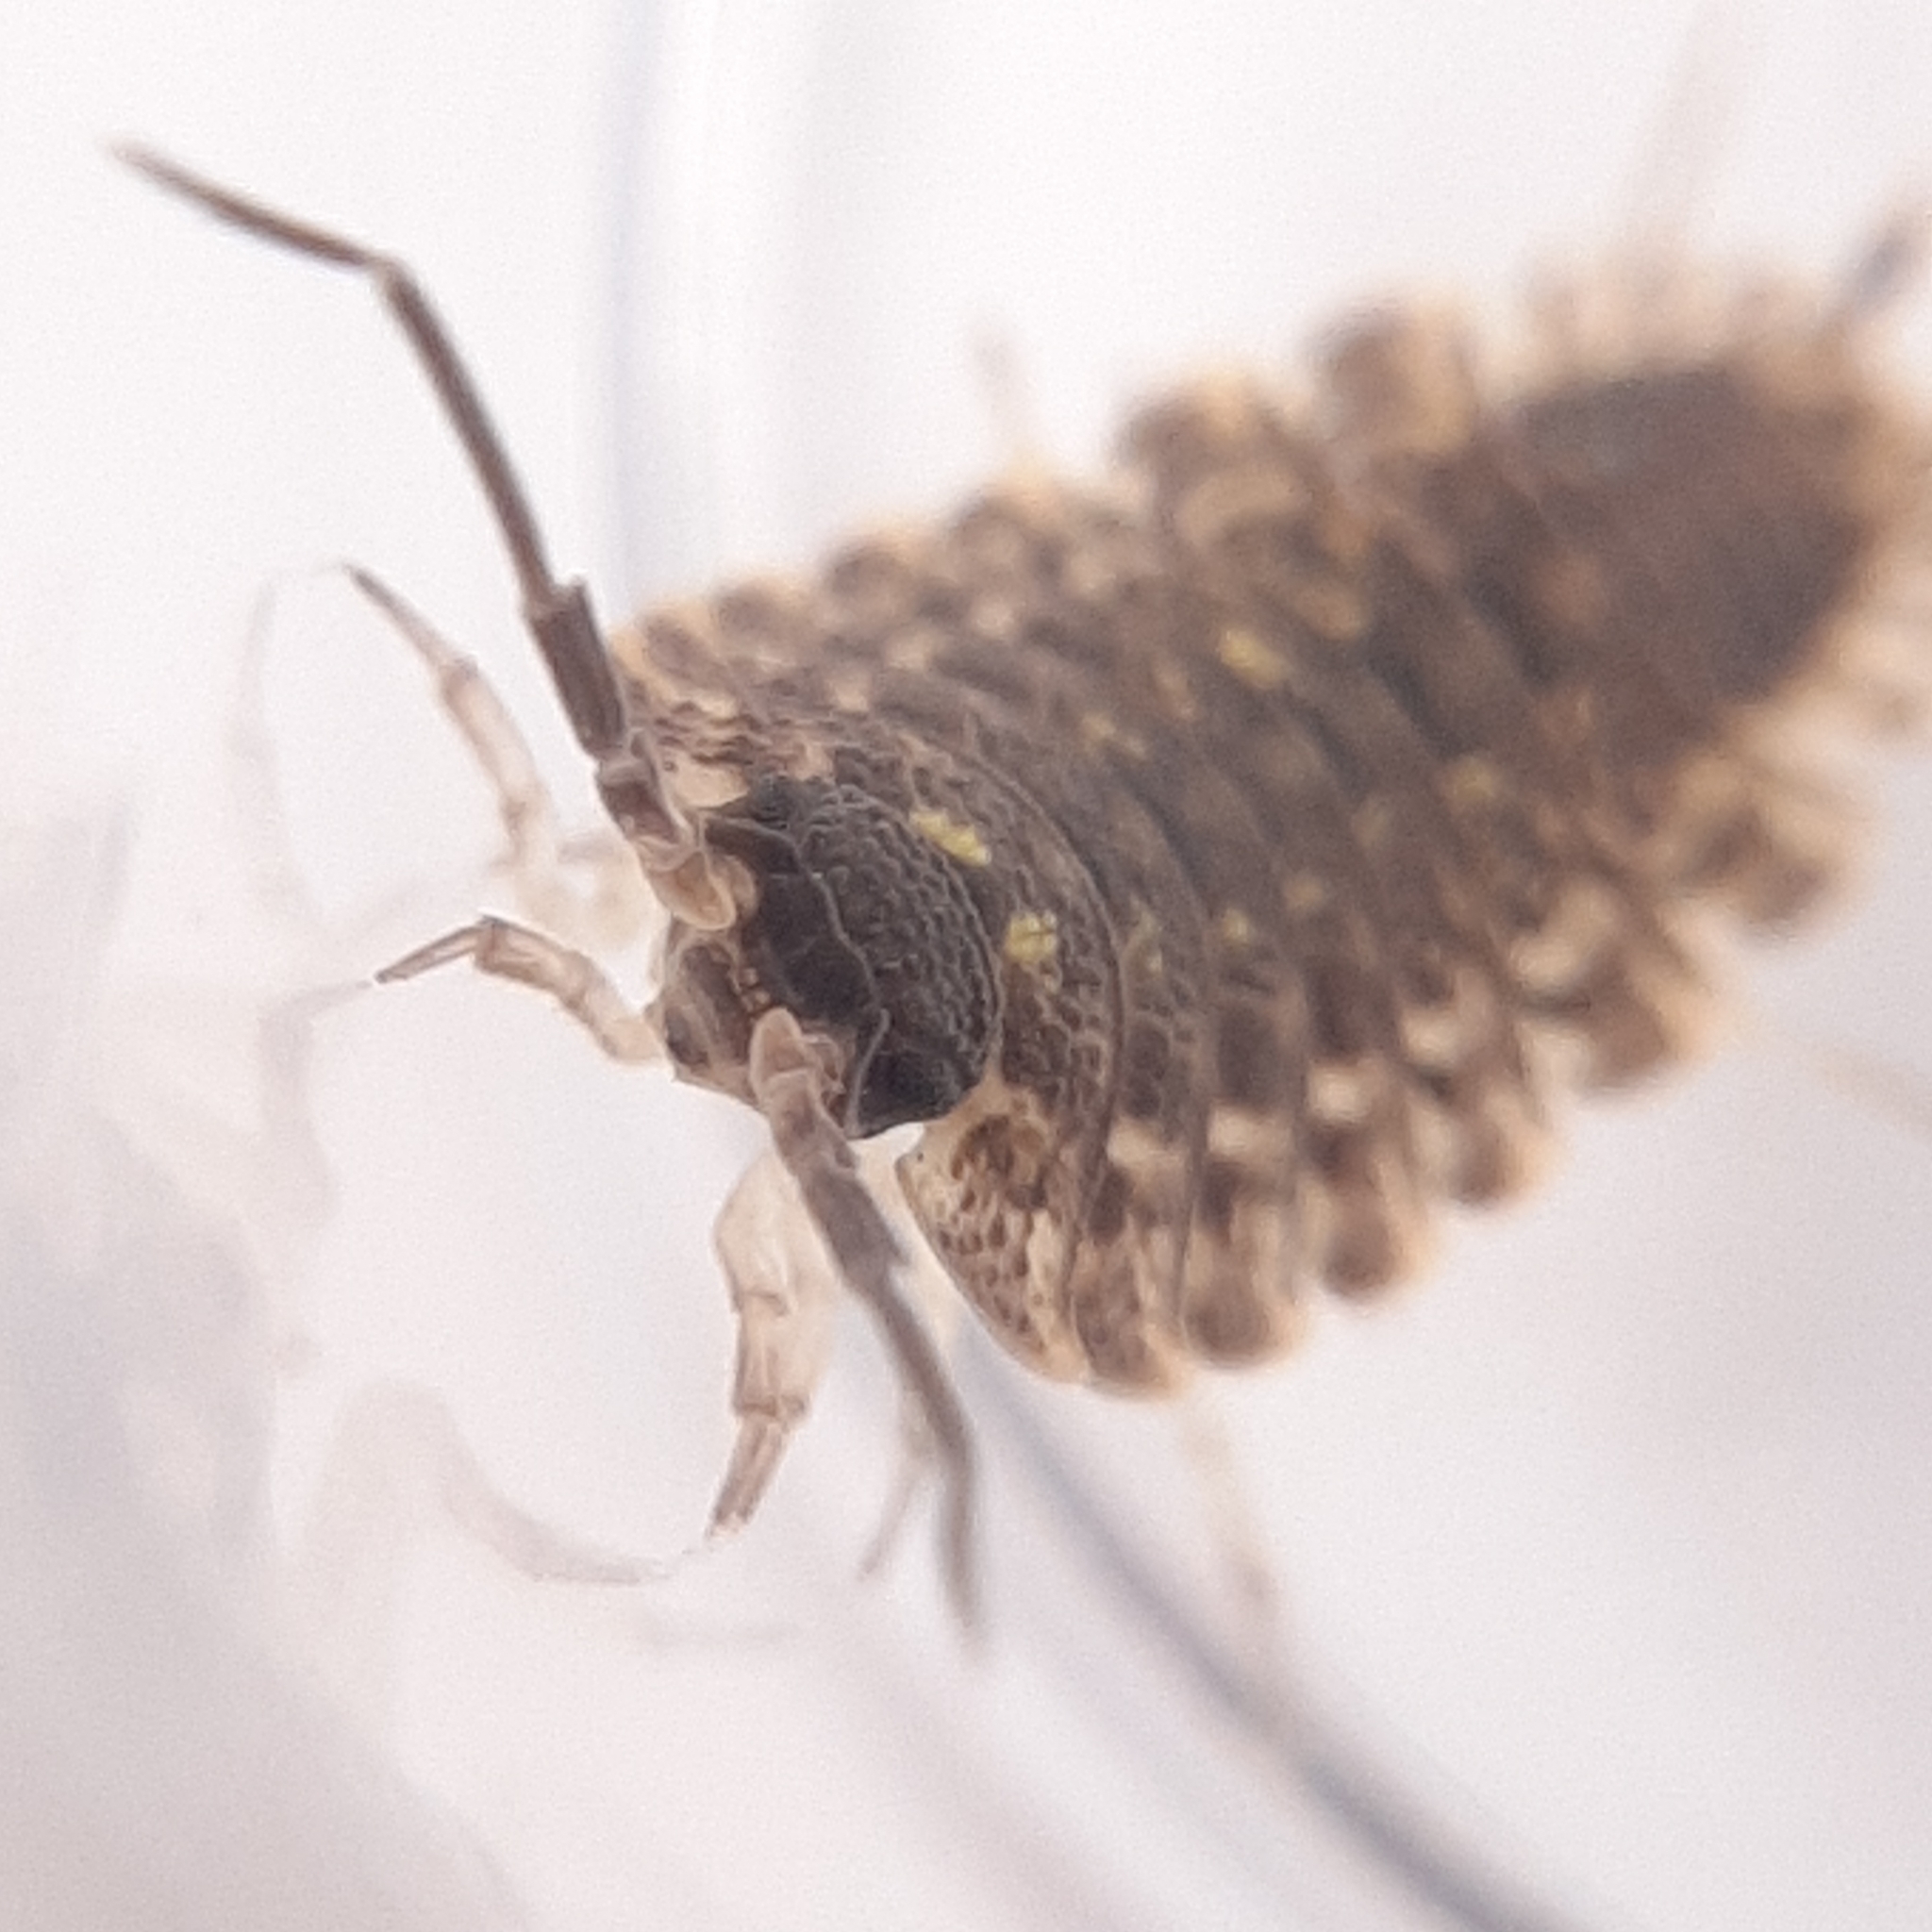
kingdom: Animalia
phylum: Arthropoda
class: Malacostraca
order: Isopoda
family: Porcellionidae
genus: Porcellio
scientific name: Porcellio spinicornis
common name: Painted woodlouse
